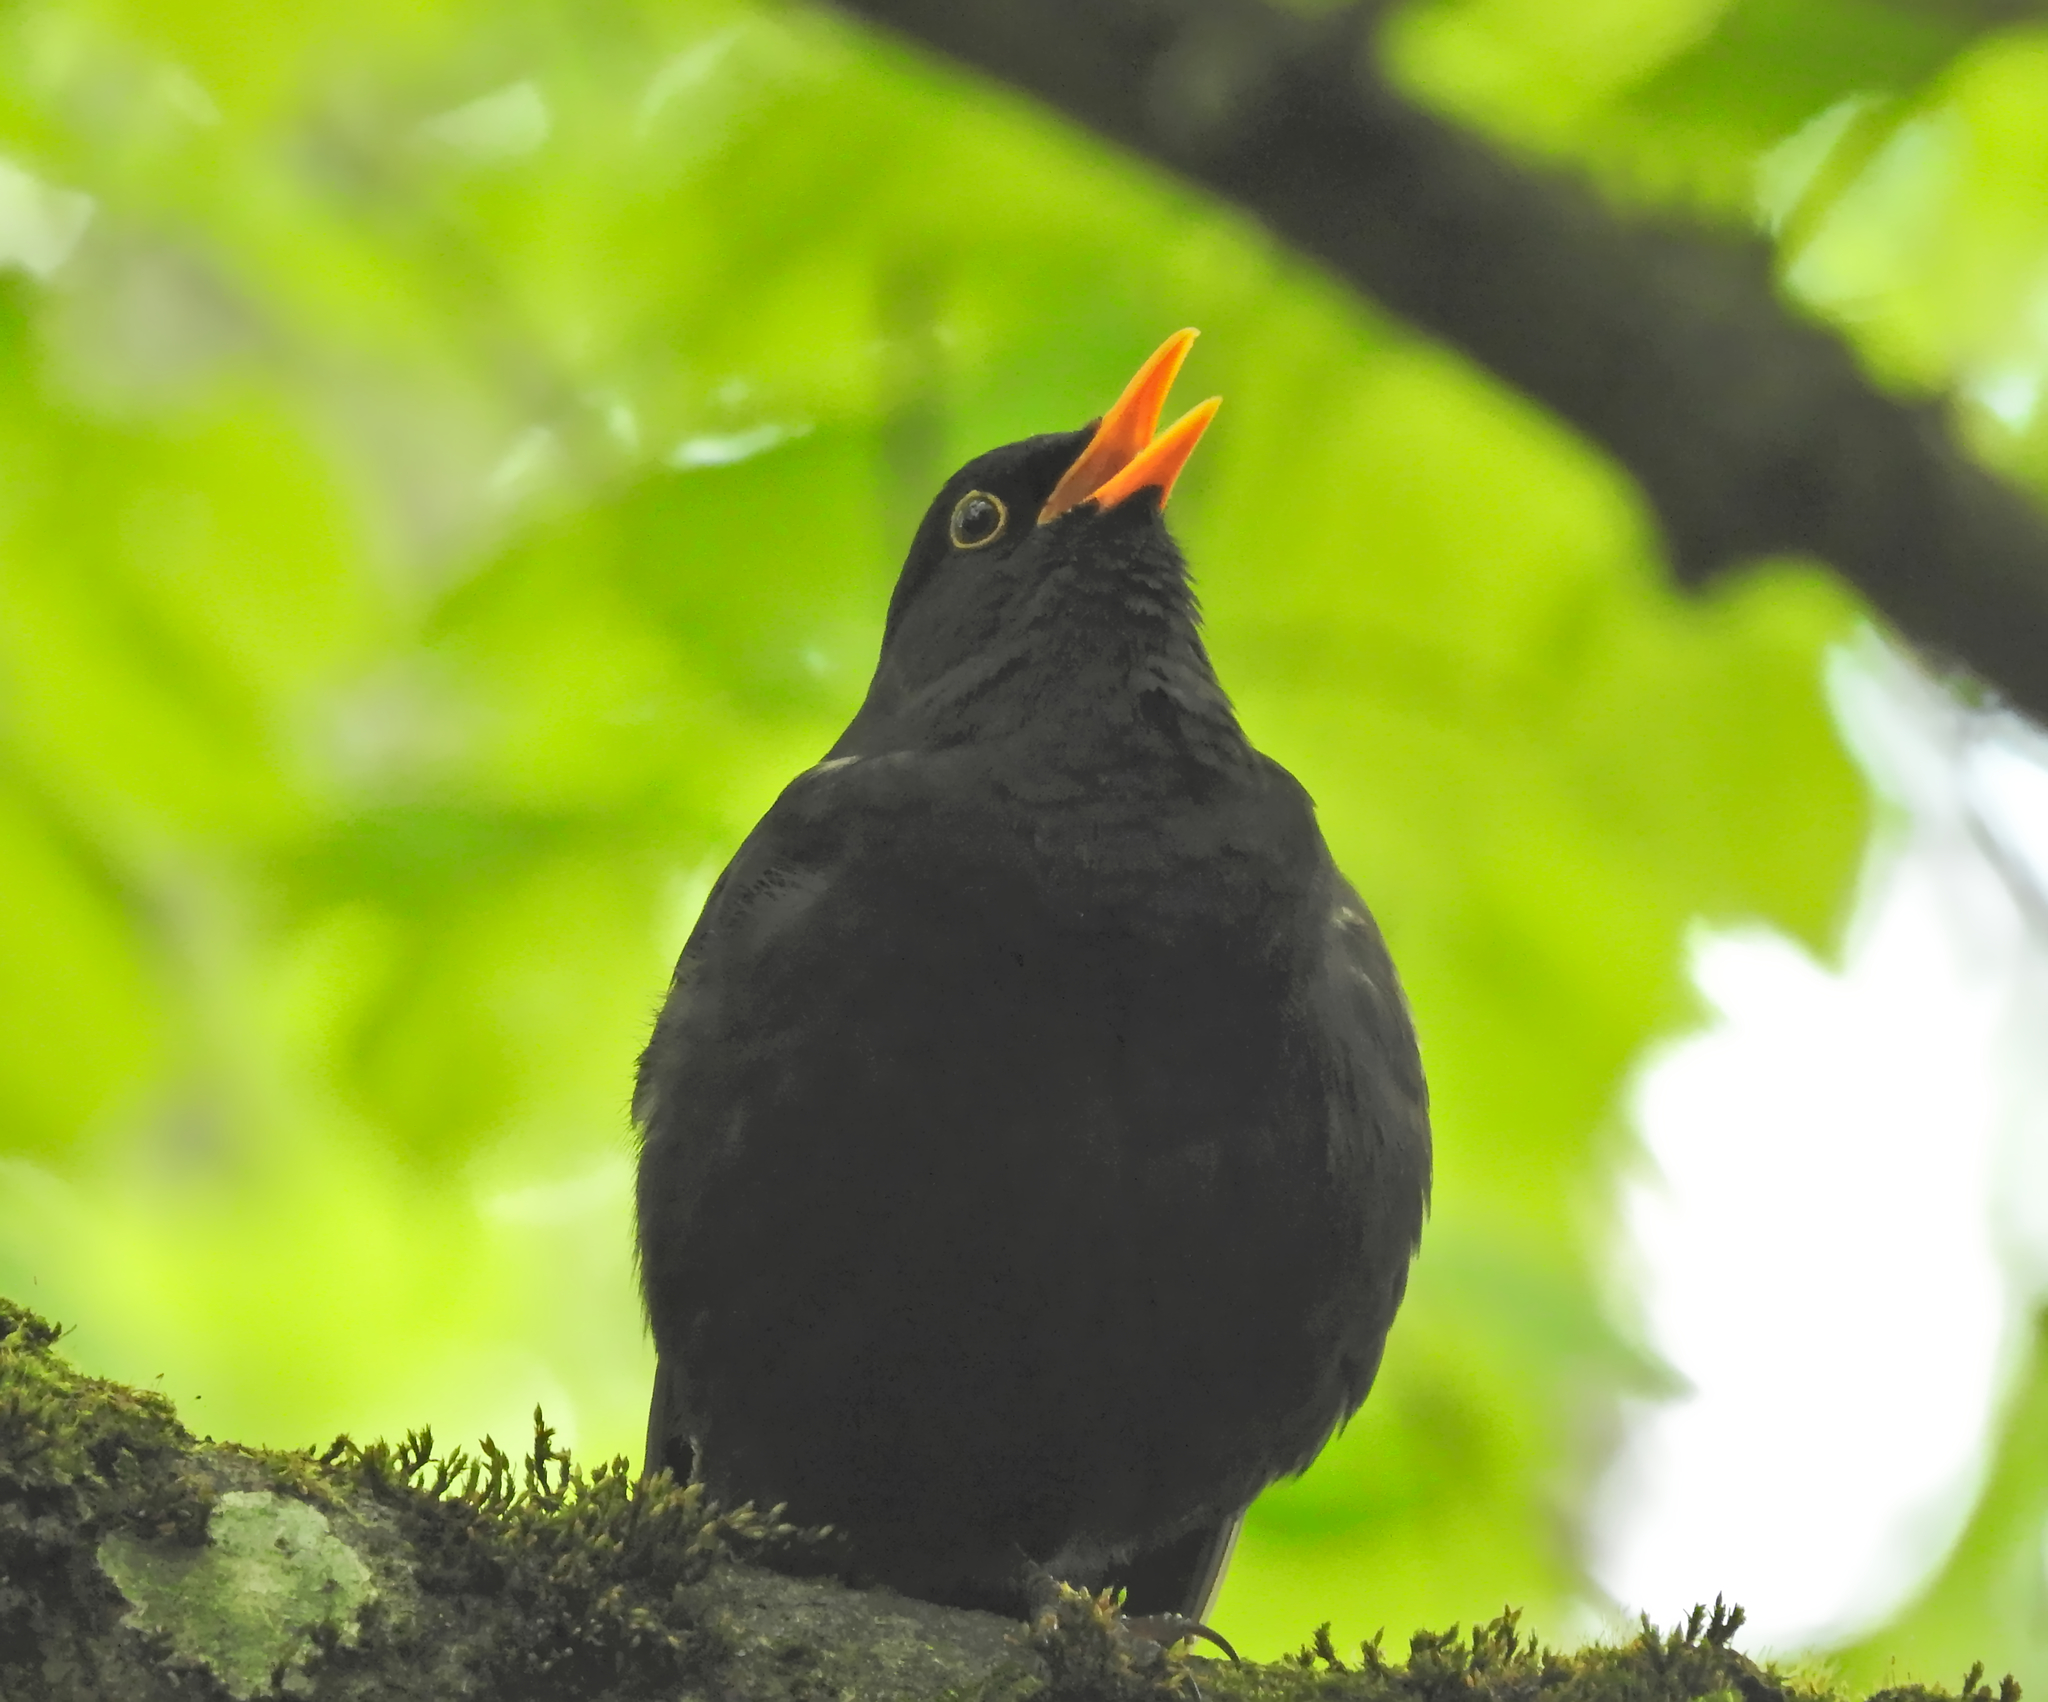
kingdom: Animalia
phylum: Chordata
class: Aves
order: Passeriformes
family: Turdidae
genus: Turdus
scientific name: Turdus merula
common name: Common blackbird
